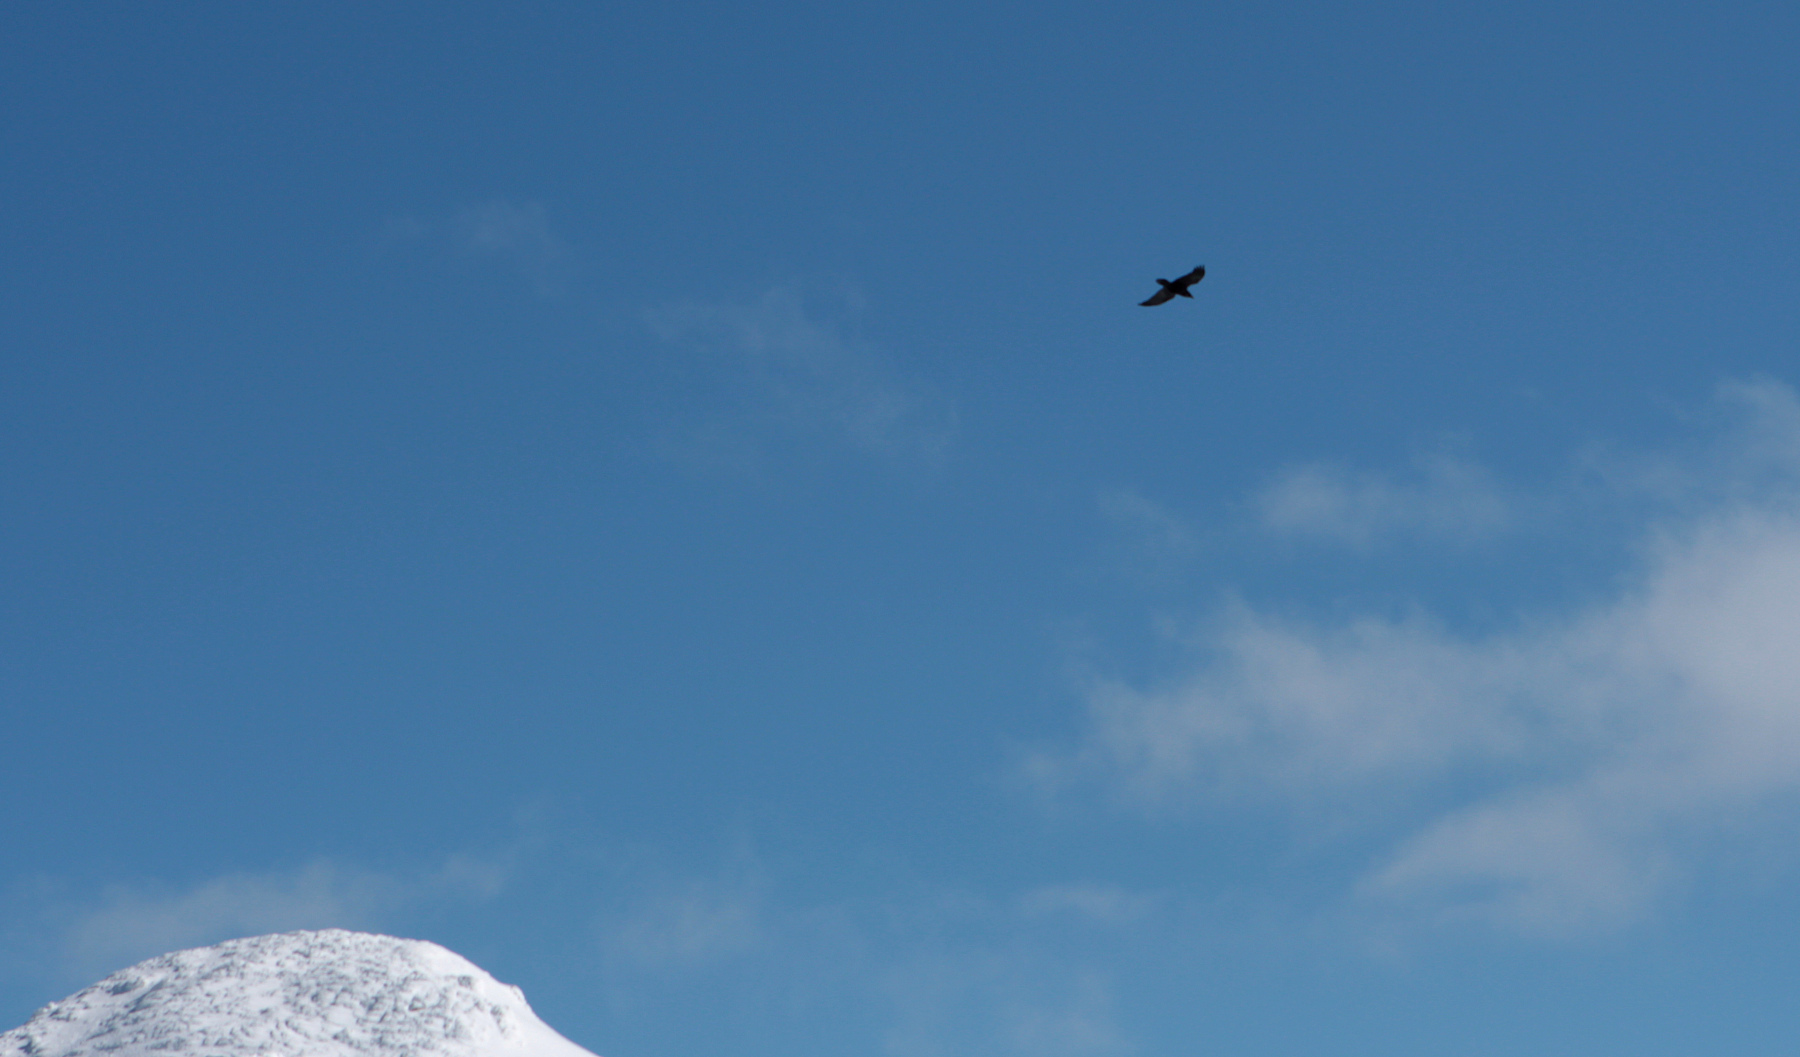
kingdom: Animalia
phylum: Chordata
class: Aves
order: Passeriformes
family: Corvidae
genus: Corvus
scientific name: Corvus corax
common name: Common raven
